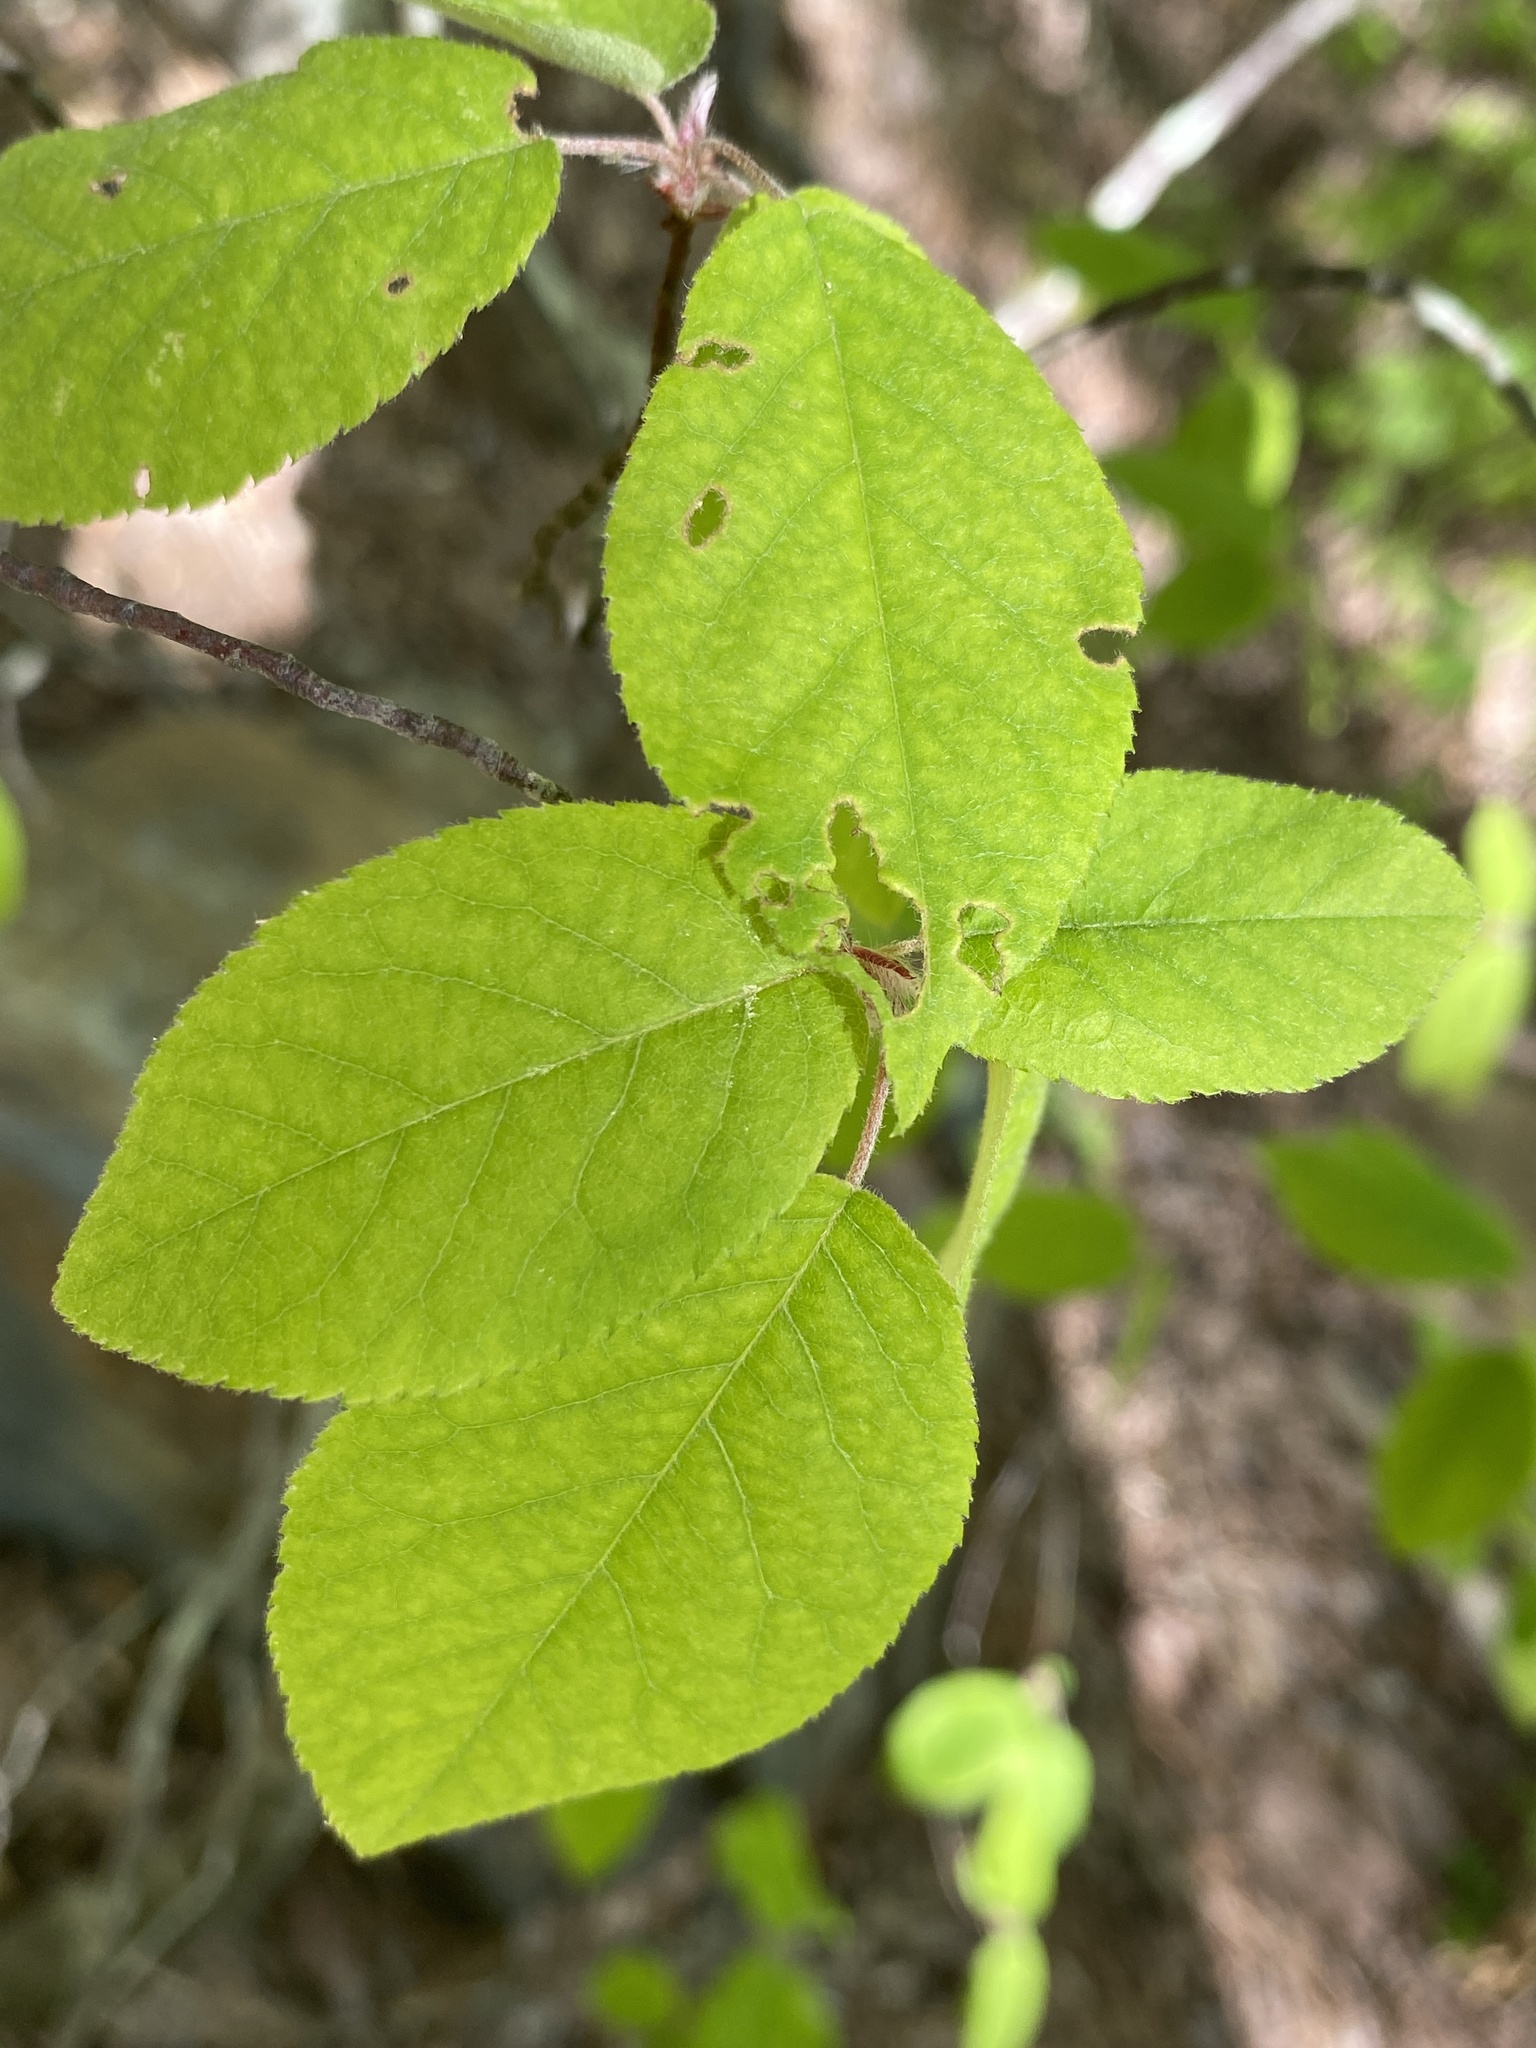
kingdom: Plantae
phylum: Tracheophyta
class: Magnoliopsida
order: Rosales
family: Rosaceae
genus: Amelanchier
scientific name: Amelanchier arborea
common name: Downy serviceberry
